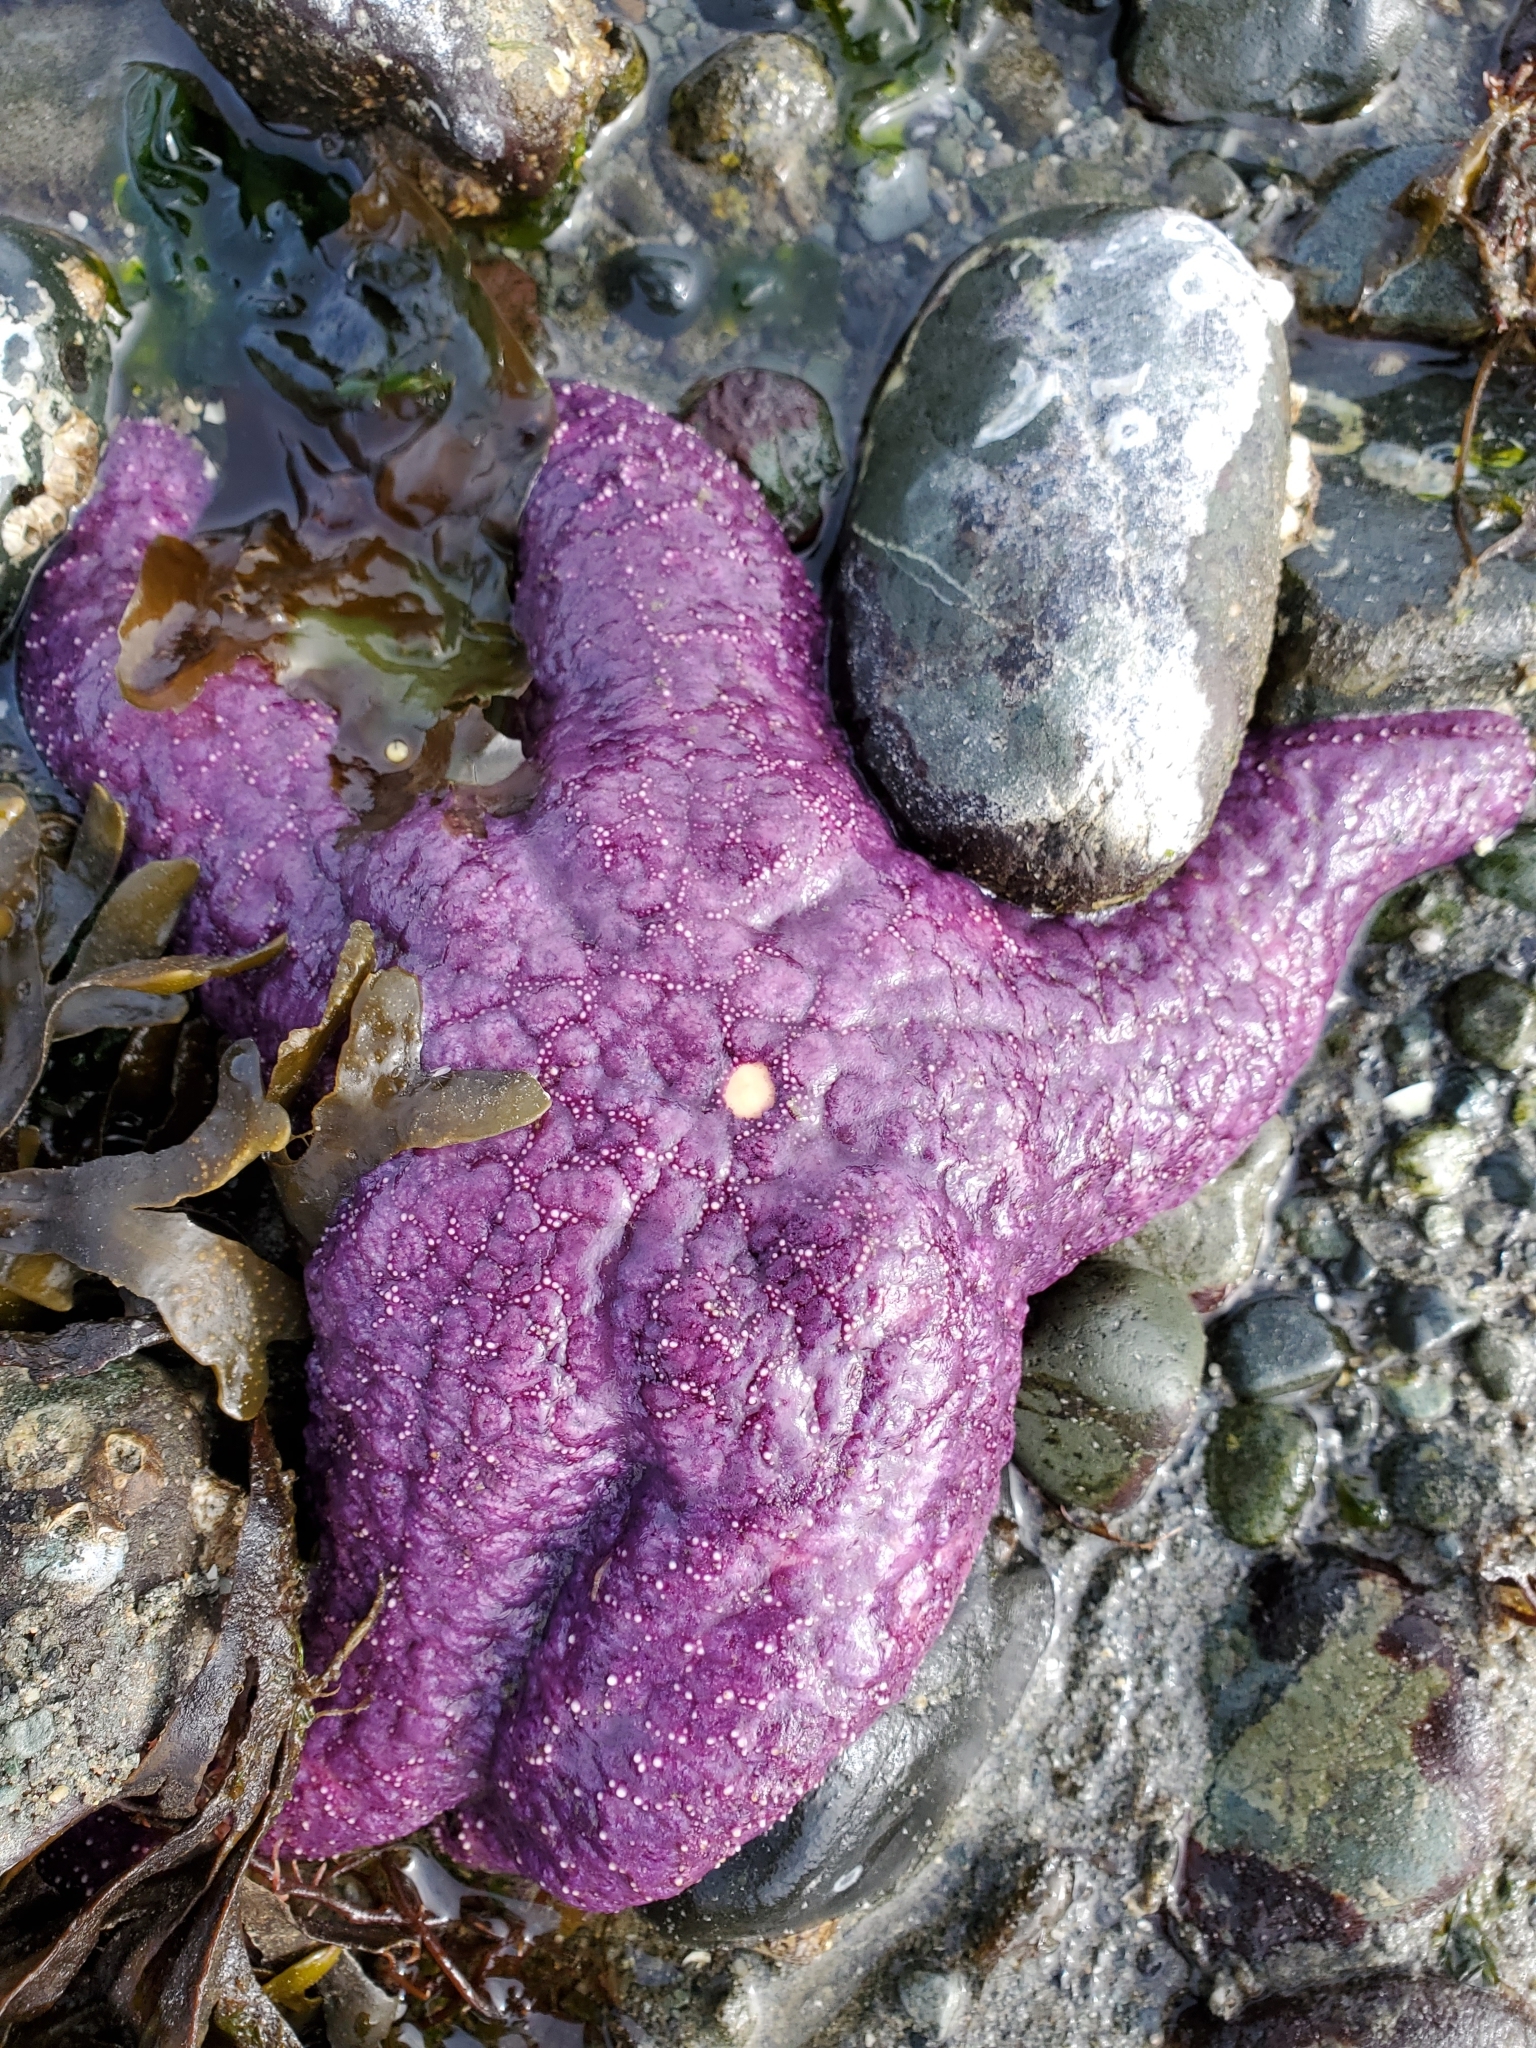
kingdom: Animalia
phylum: Echinodermata
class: Asteroidea
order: Forcipulatida
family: Asteriidae
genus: Pisaster
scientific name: Pisaster ochraceus
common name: Ochre stars
